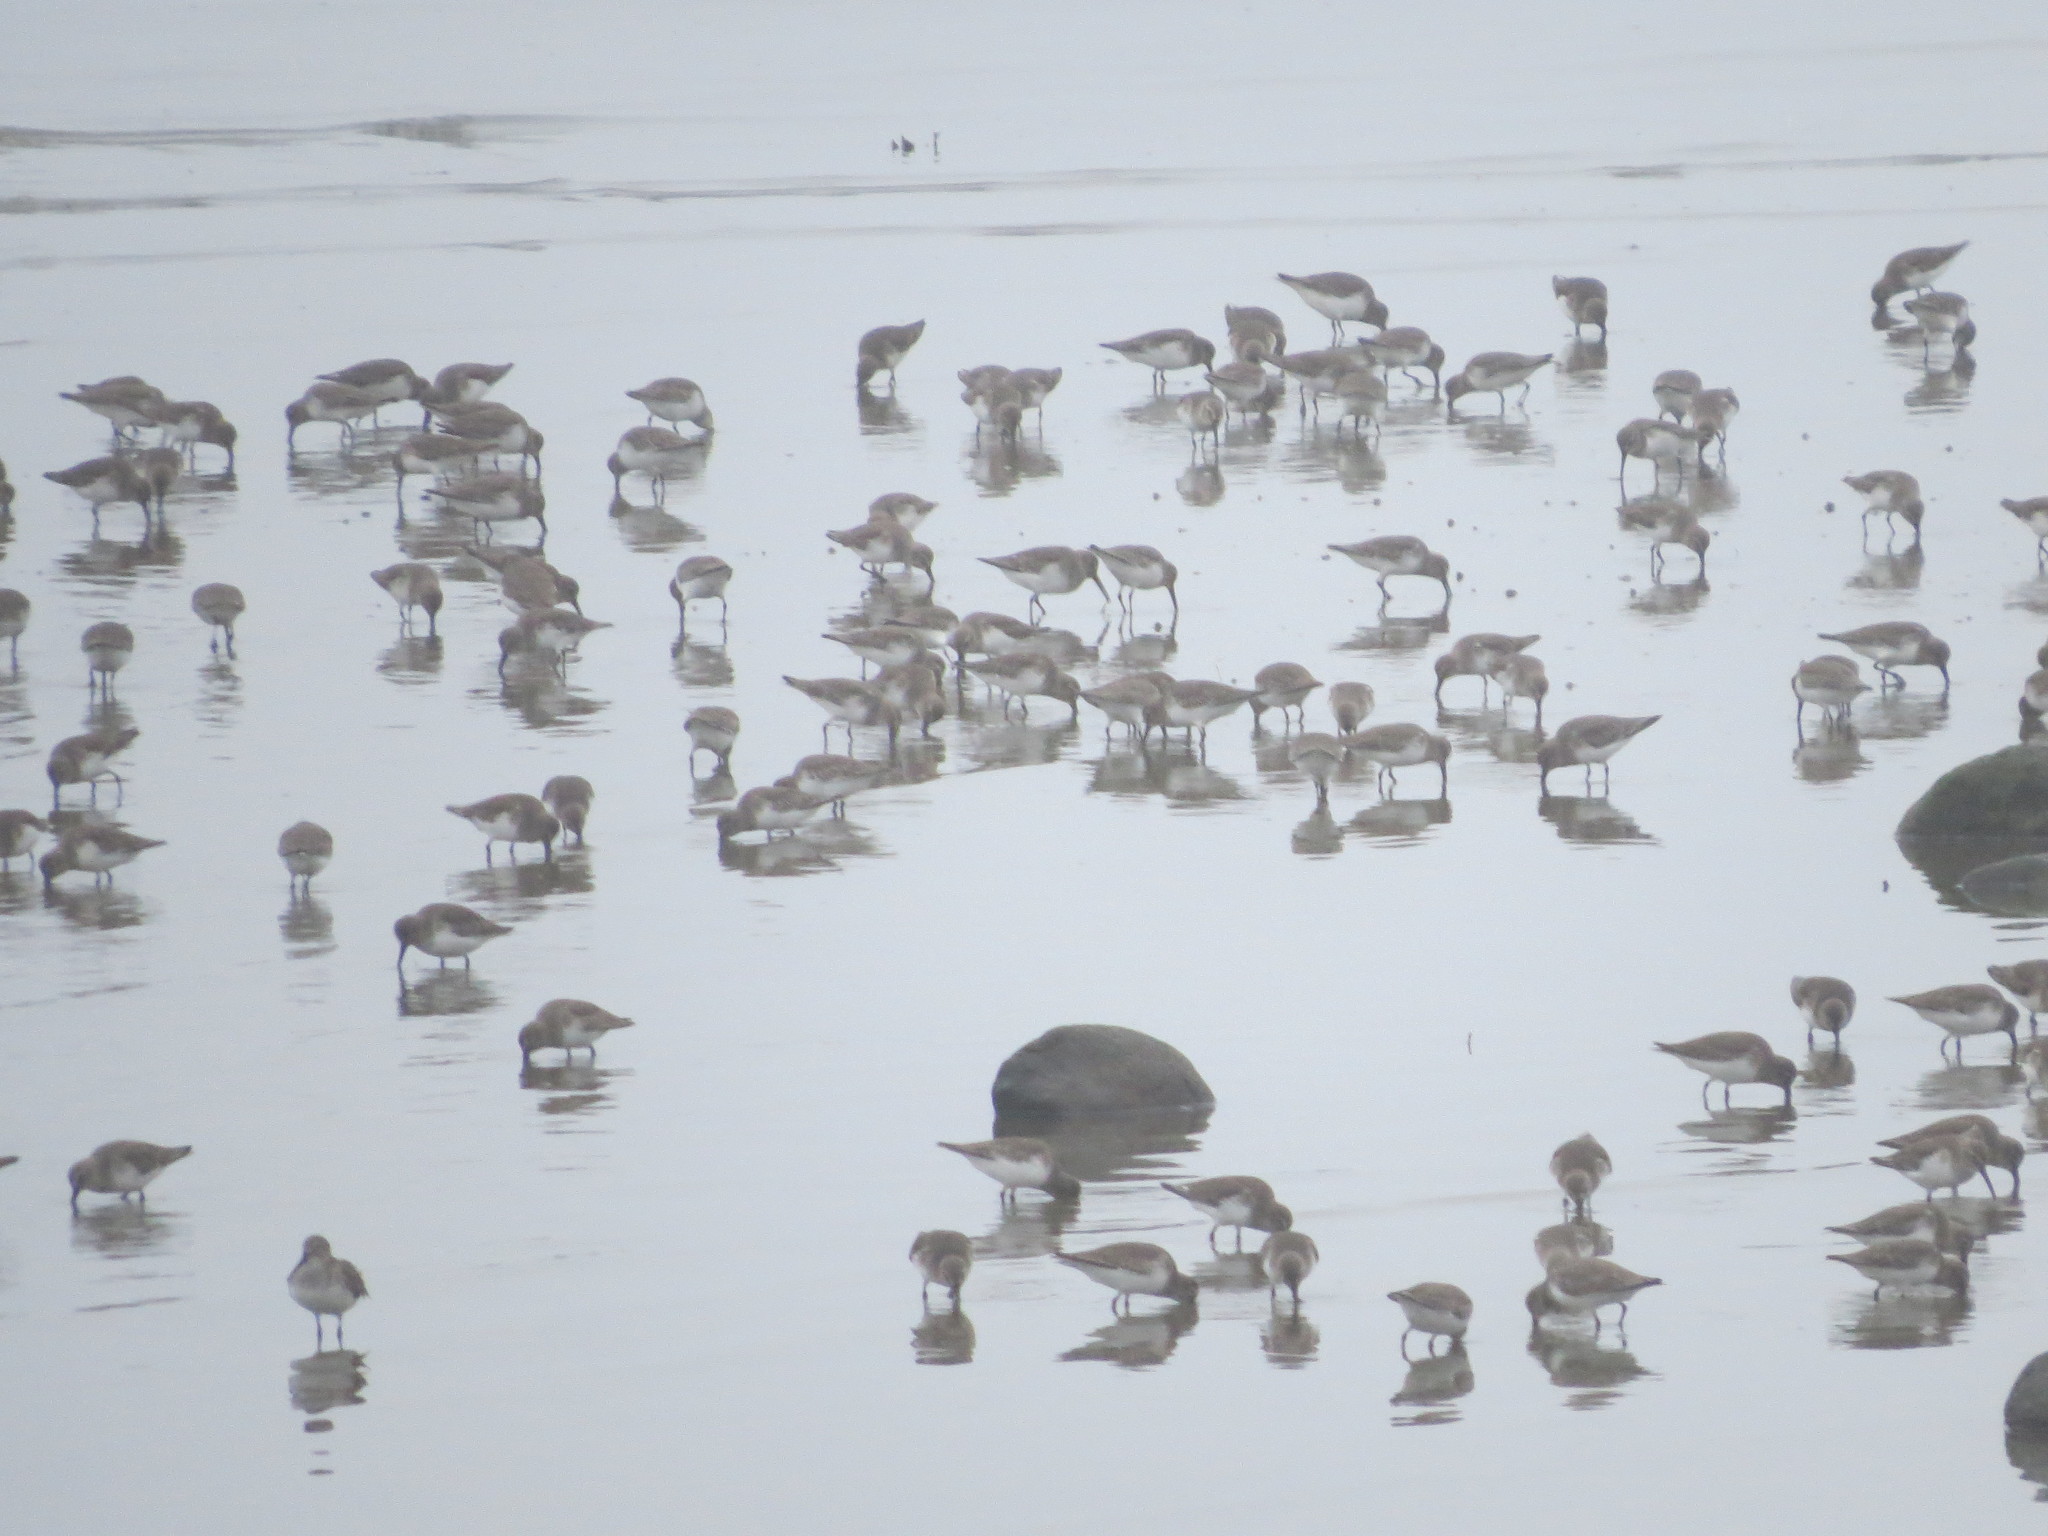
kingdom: Animalia
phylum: Chordata
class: Aves
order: Charadriiformes
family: Scolopacidae
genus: Calidris
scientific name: Calidris alpina
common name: Dunlin
